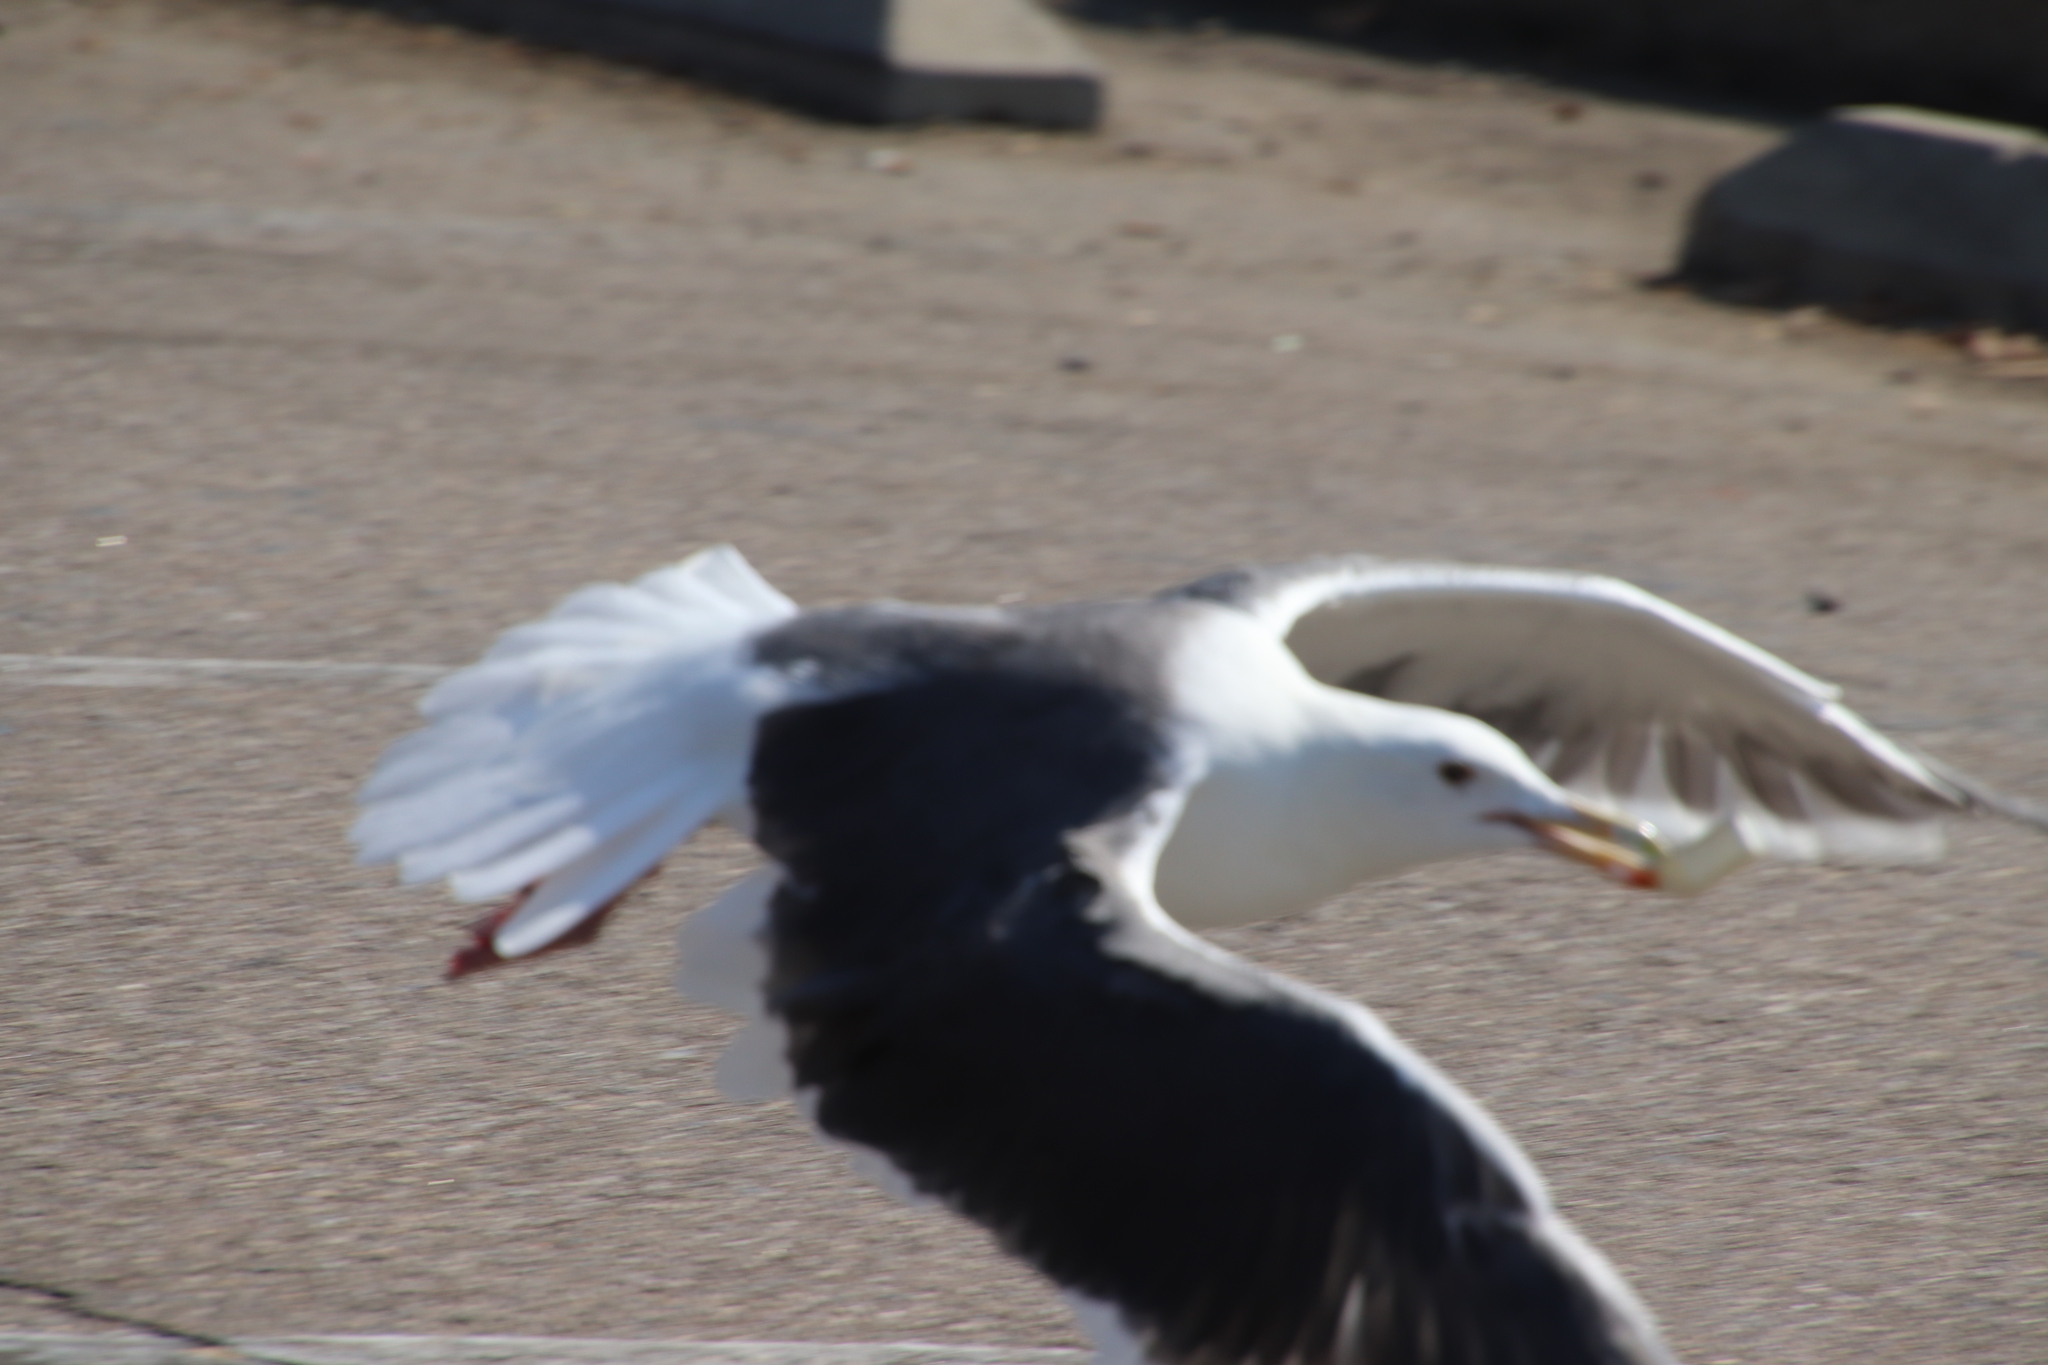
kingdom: Animalia
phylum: Chordata
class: Aves
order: Charadriiformes
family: Laridae
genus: Larus
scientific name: Larus occidentalis
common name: Western gull
